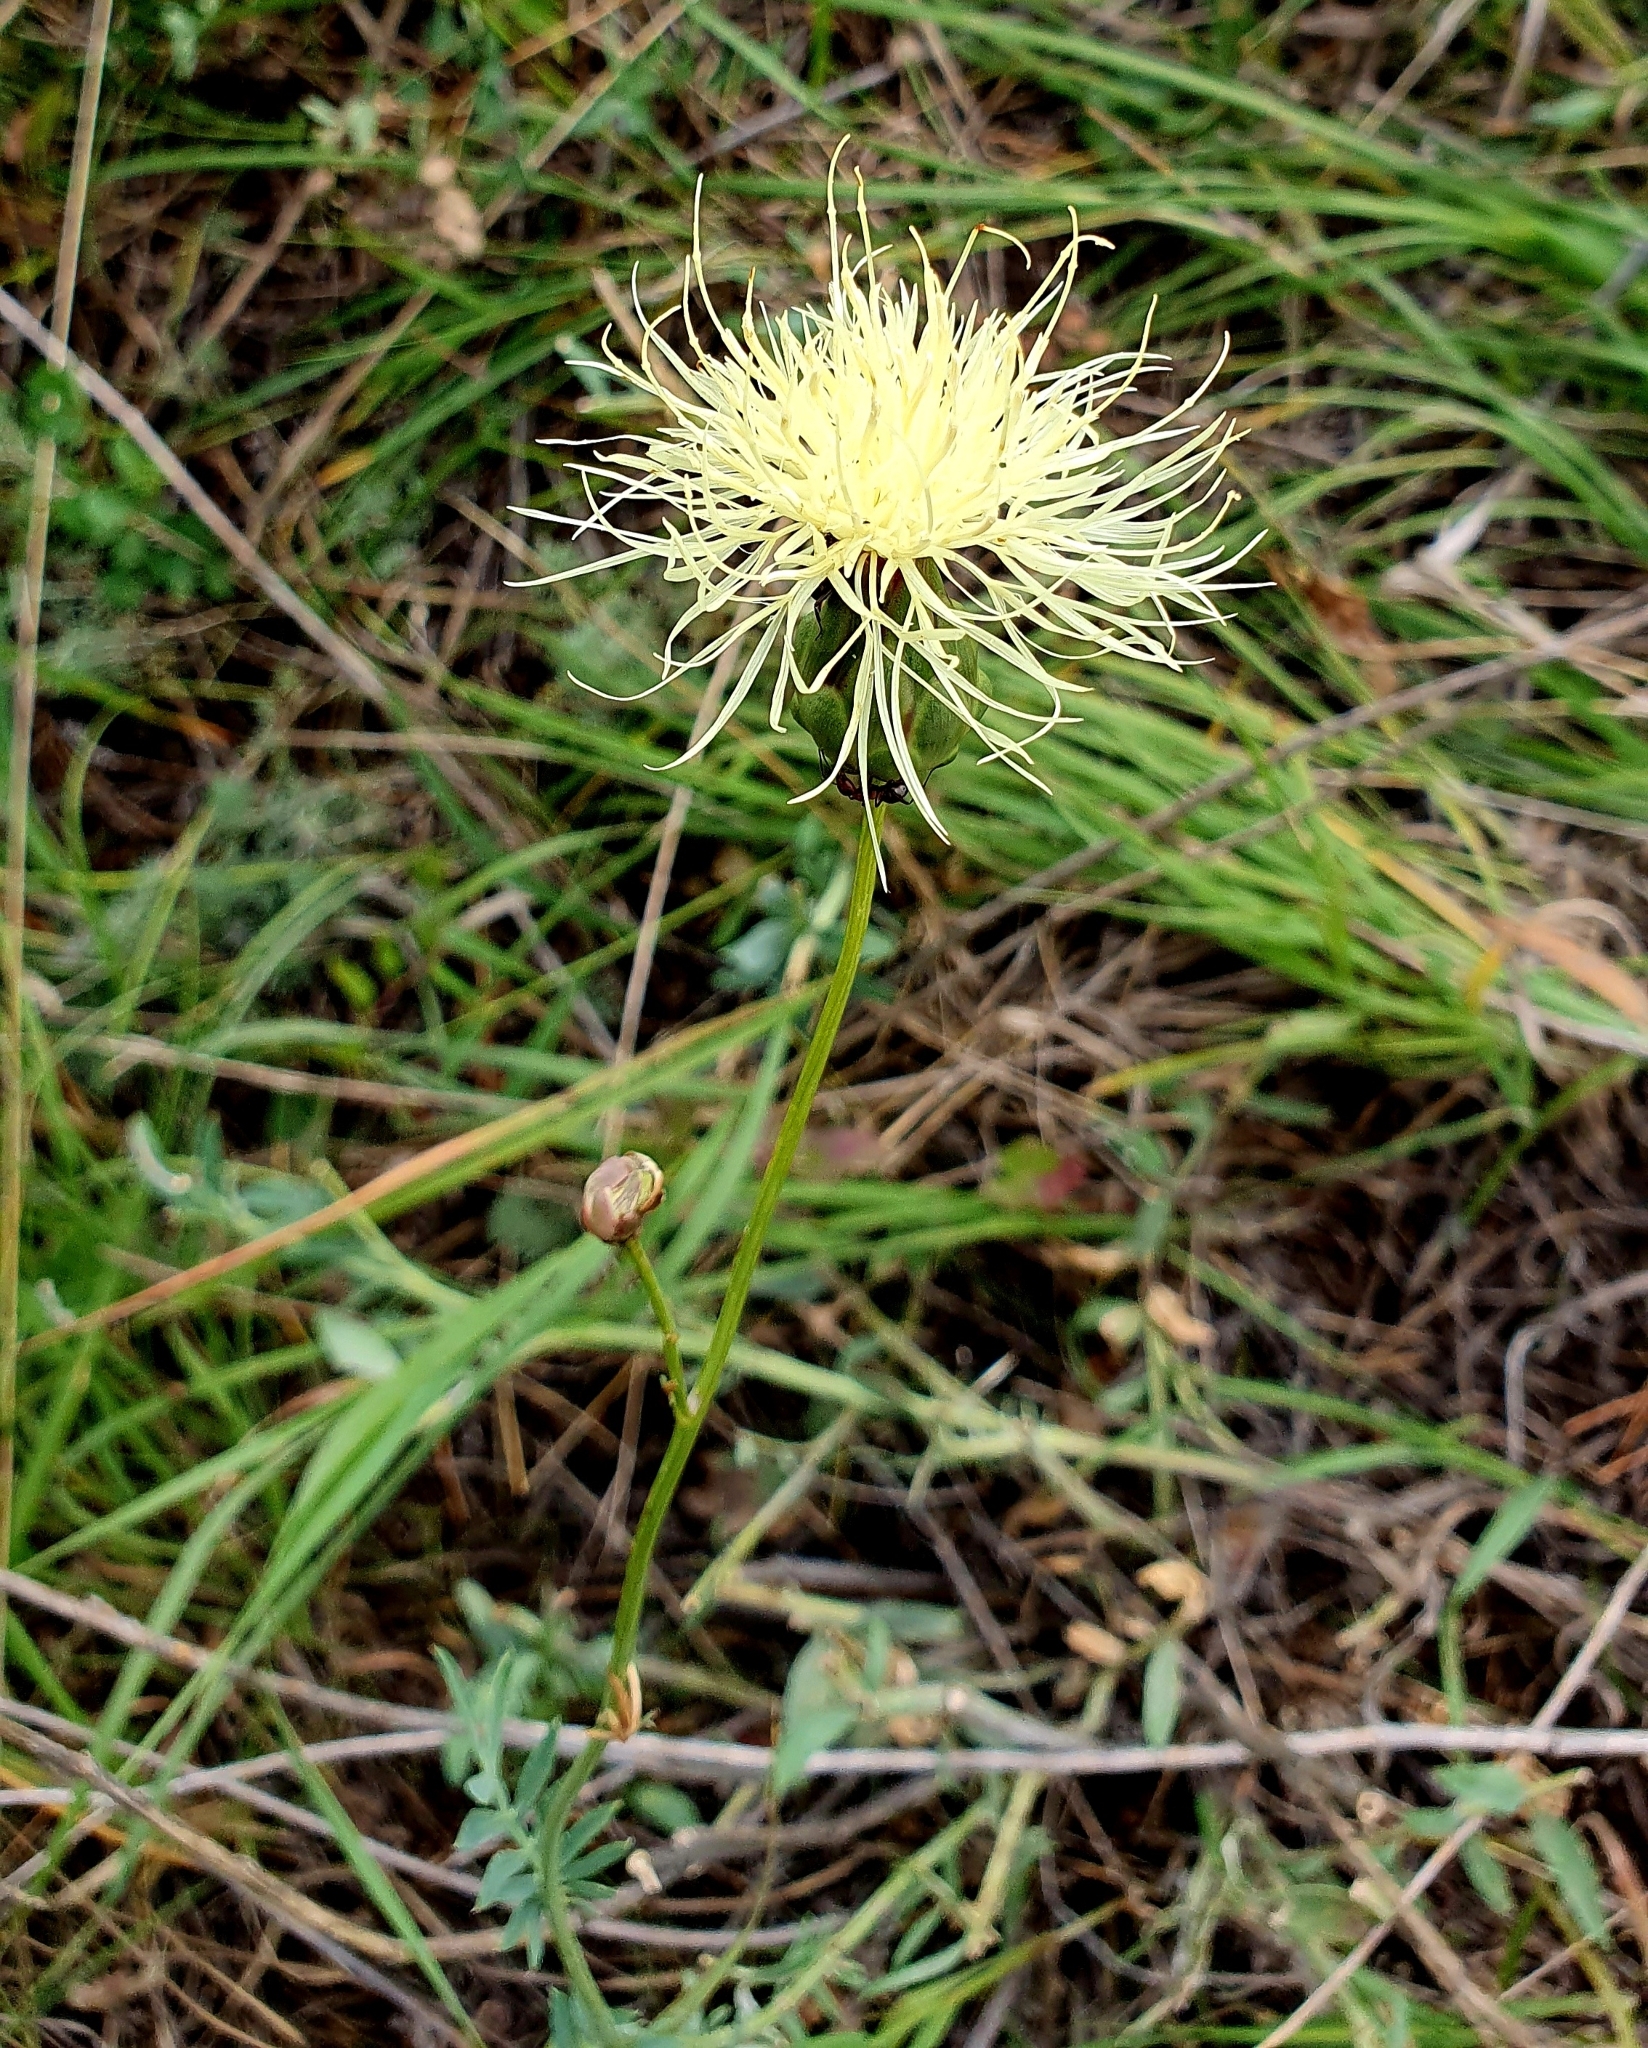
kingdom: Plantae
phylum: Tracheophyta
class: Magnoliopsida
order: Asterales
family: Asteraceae
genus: Rhaponticoides
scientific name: Rhaponticoides ruthenica
